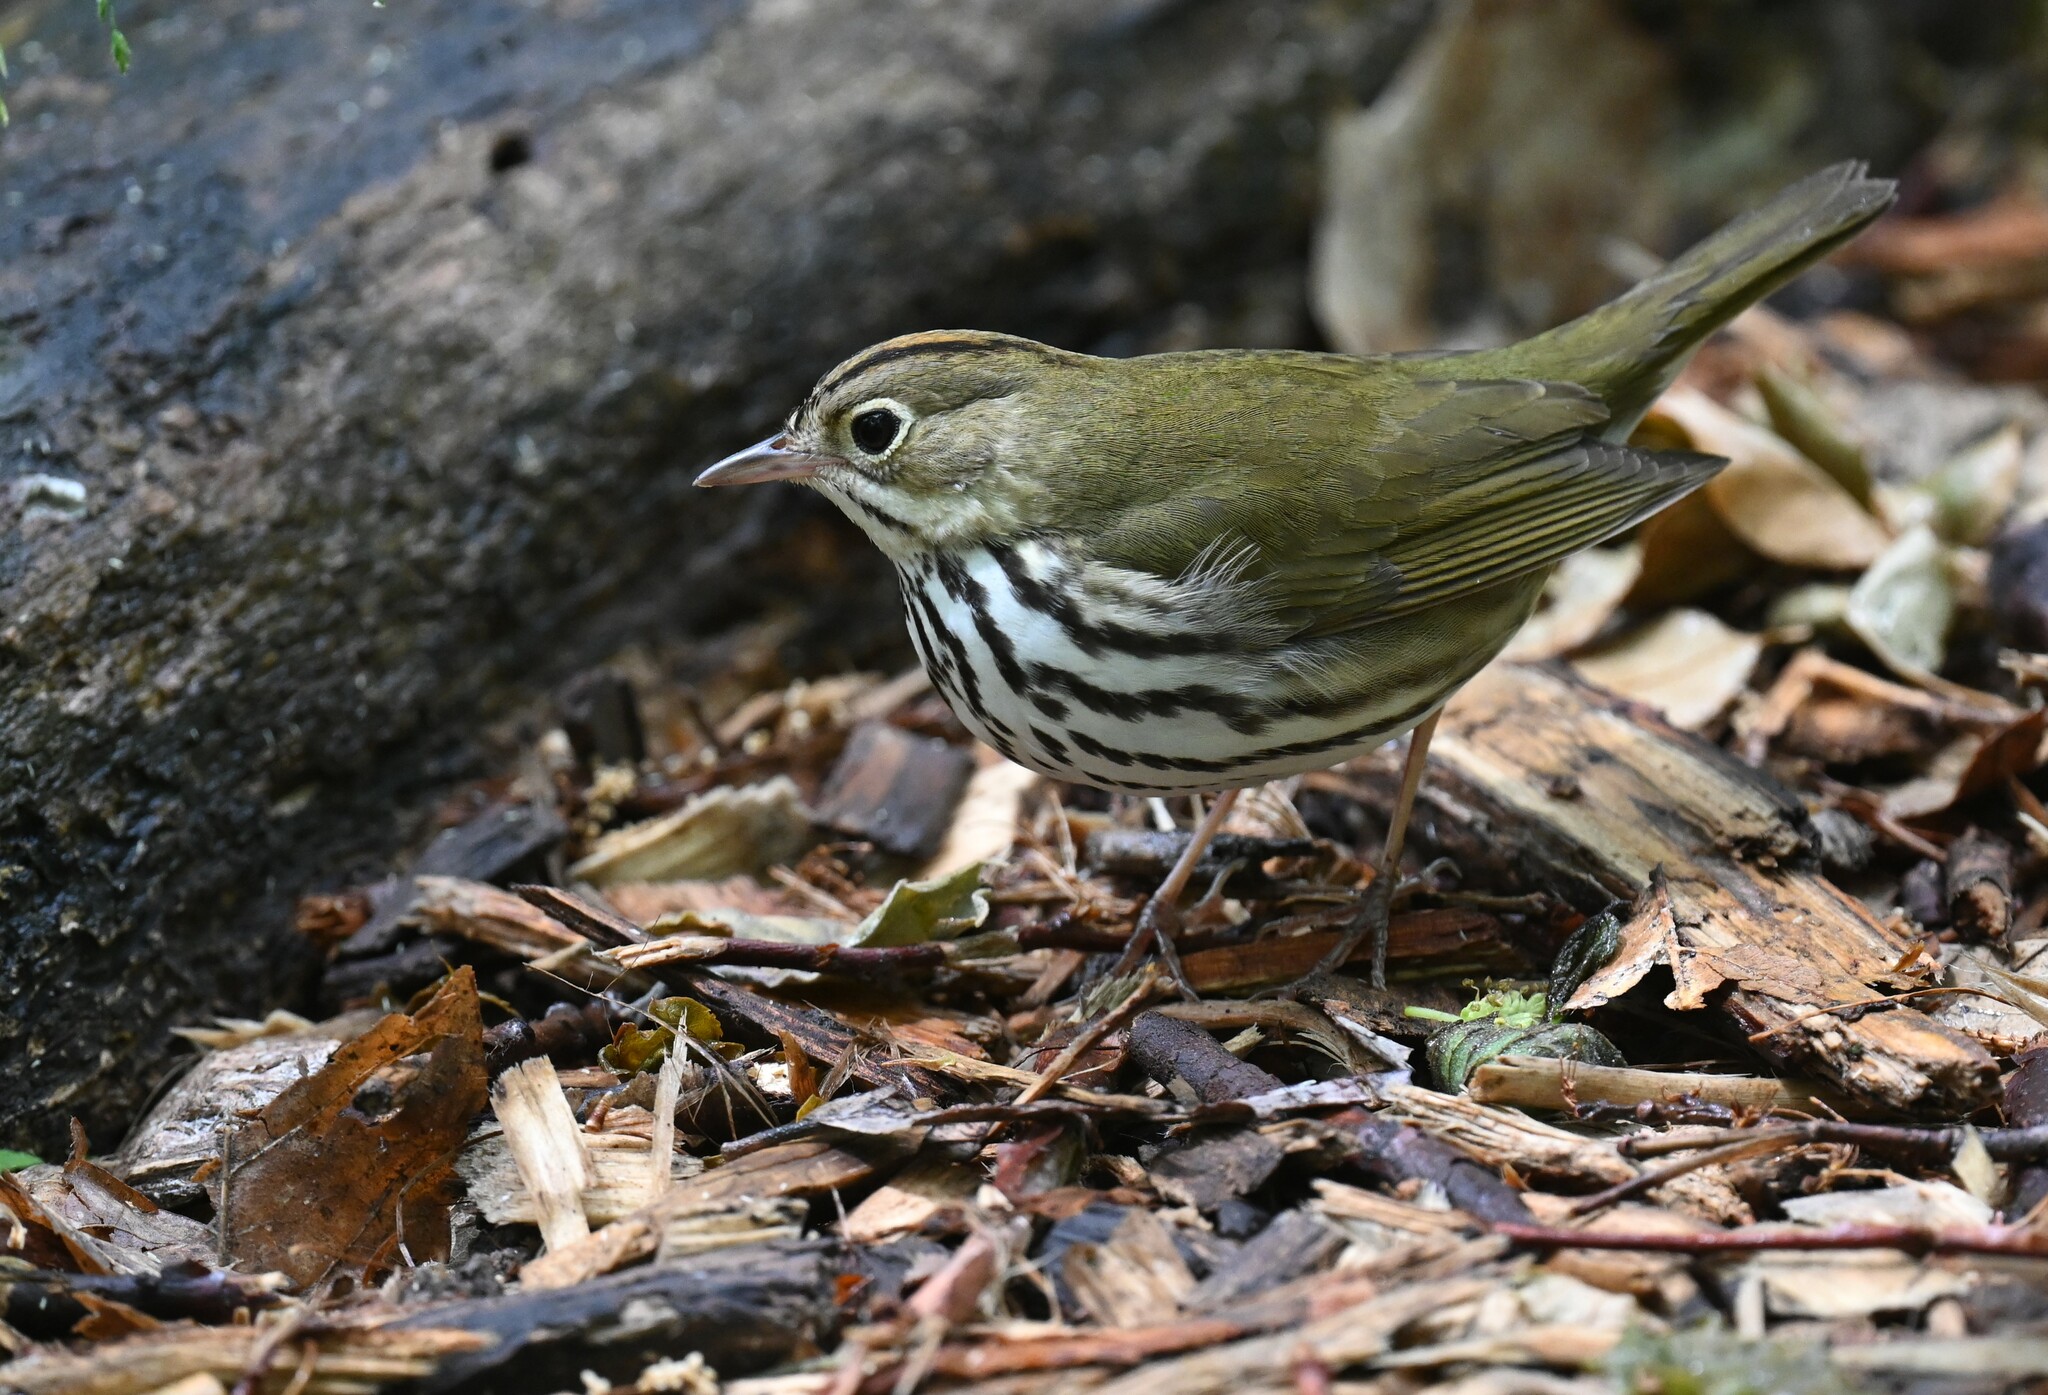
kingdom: Animalia
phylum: Chordata
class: Aves
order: Passeriformes
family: Parulidae
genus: Seiurus
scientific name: Seiurus aurocapilla
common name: Ovenbird
